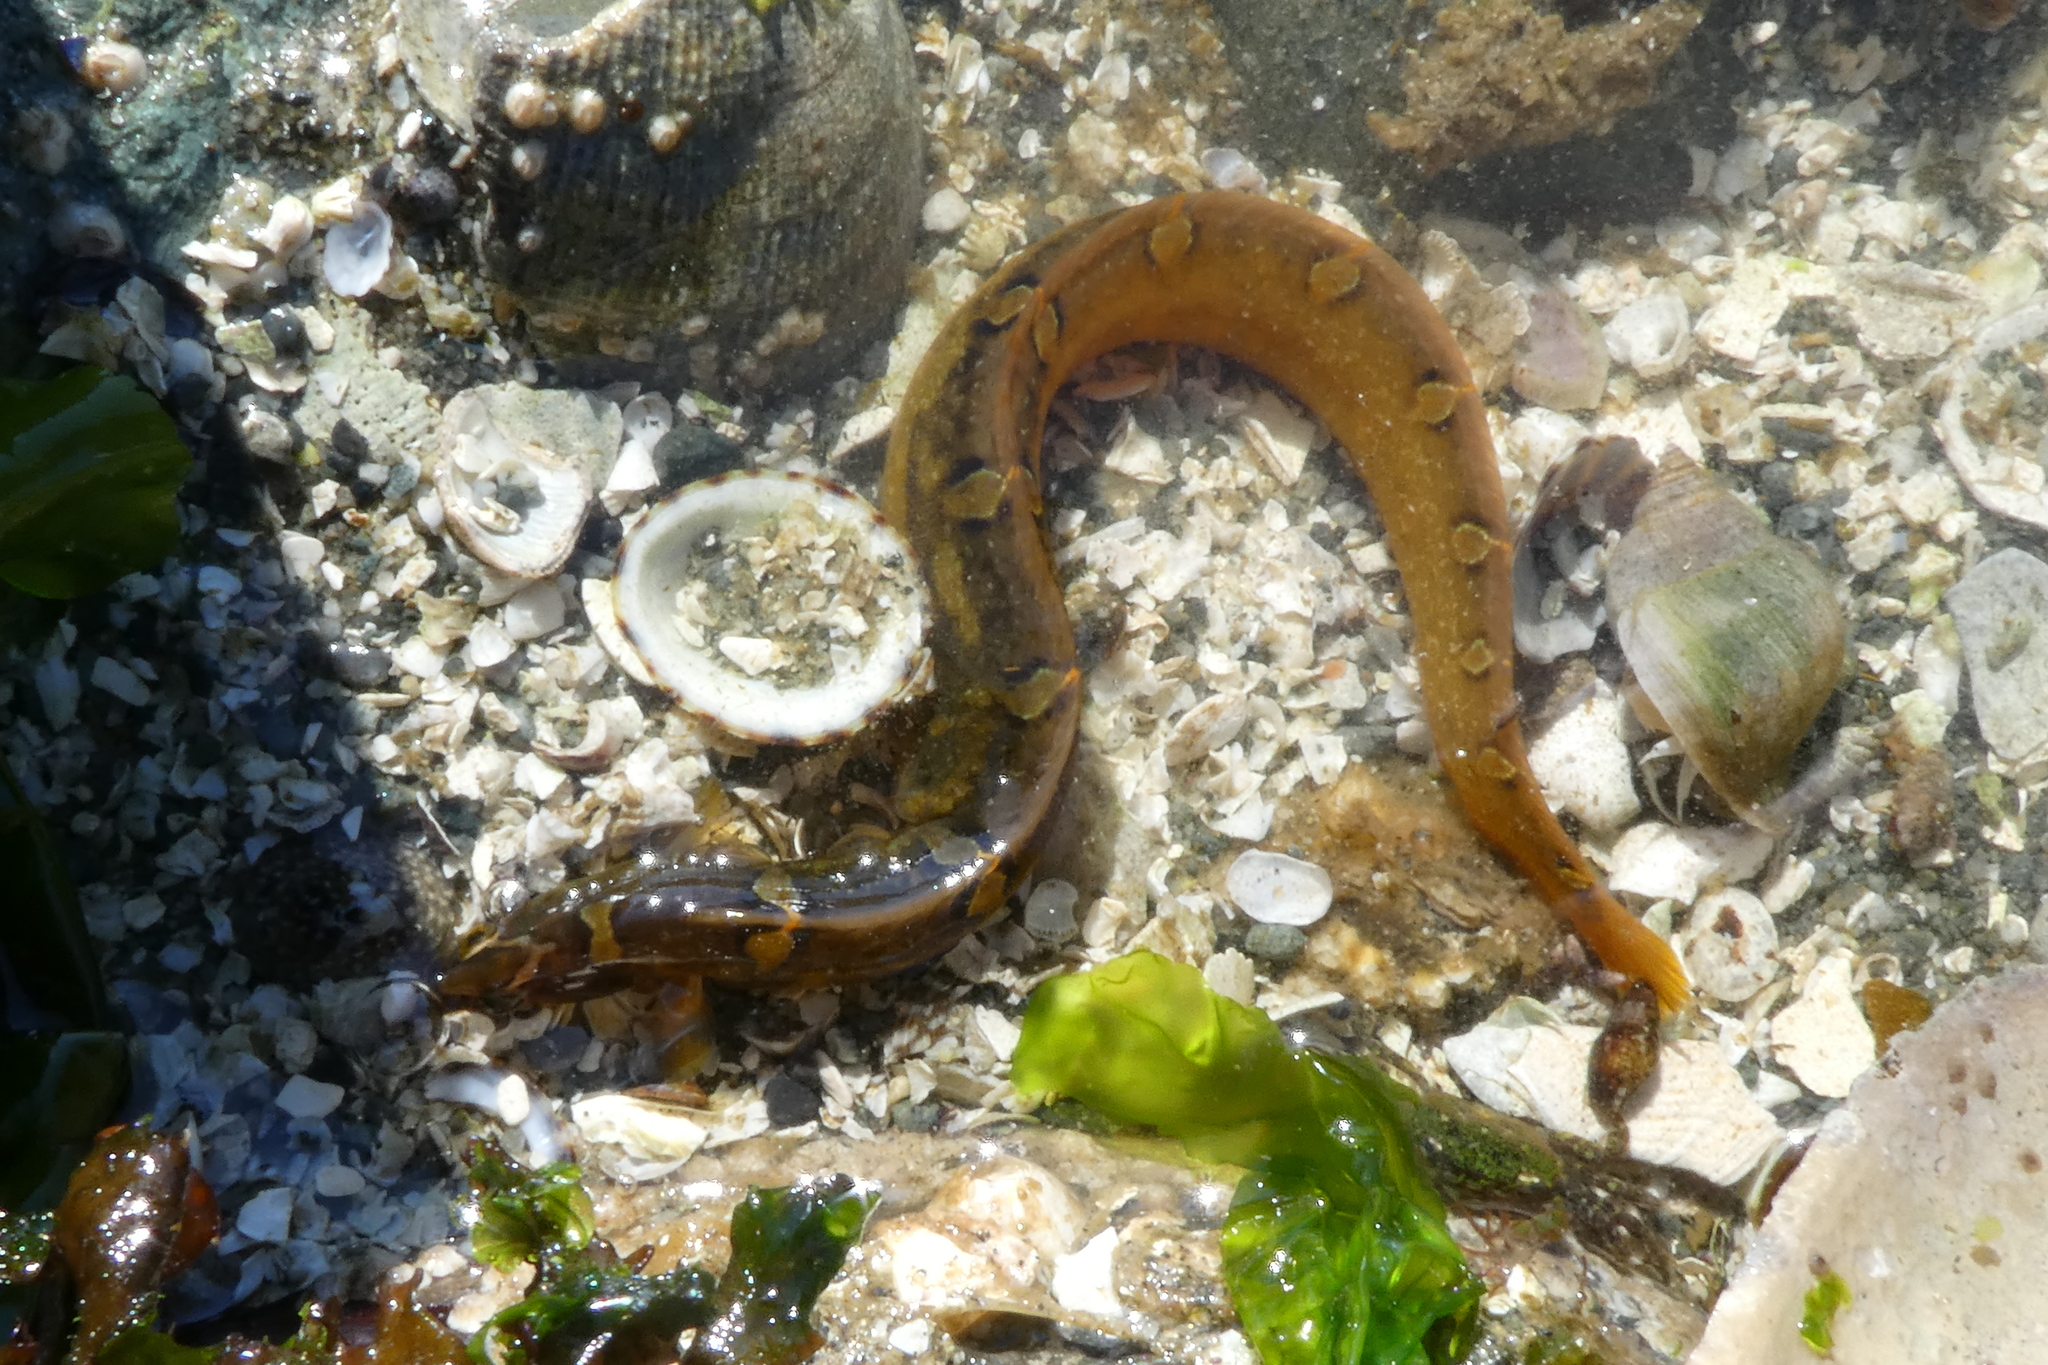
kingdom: Animalia
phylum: Chordata
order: Perciformes
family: Pholidae
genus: Pholis
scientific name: Pholis laeta
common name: Crescent gunnel
